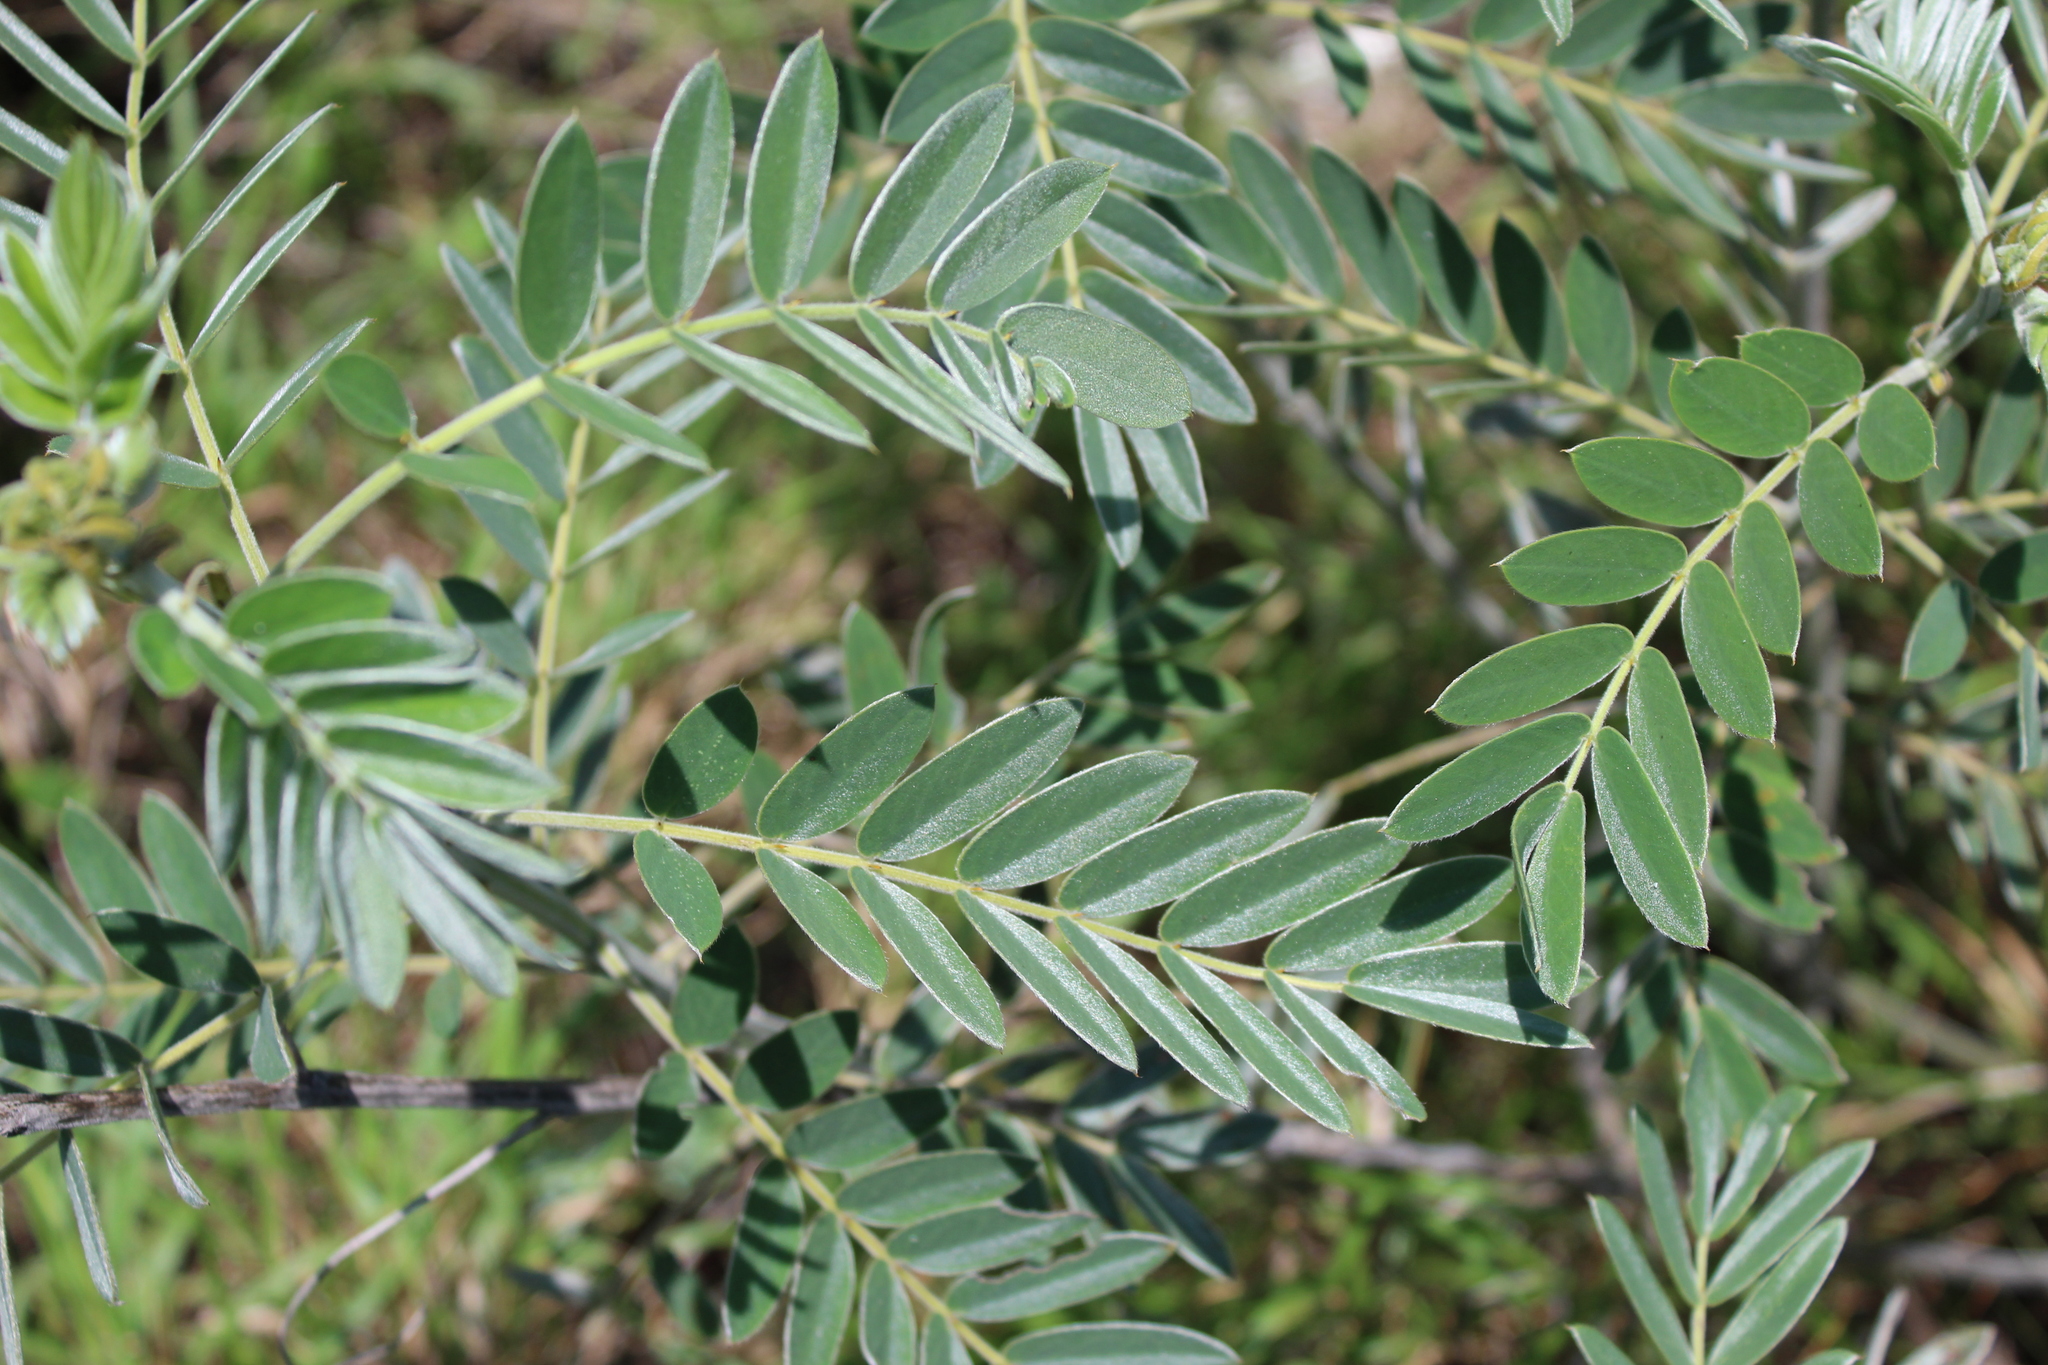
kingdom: Plantae
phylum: Tracheophyta
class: Magnoliopsida
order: Fabales
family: Fabaceae
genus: Senna
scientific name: Senna lindheimeriana
